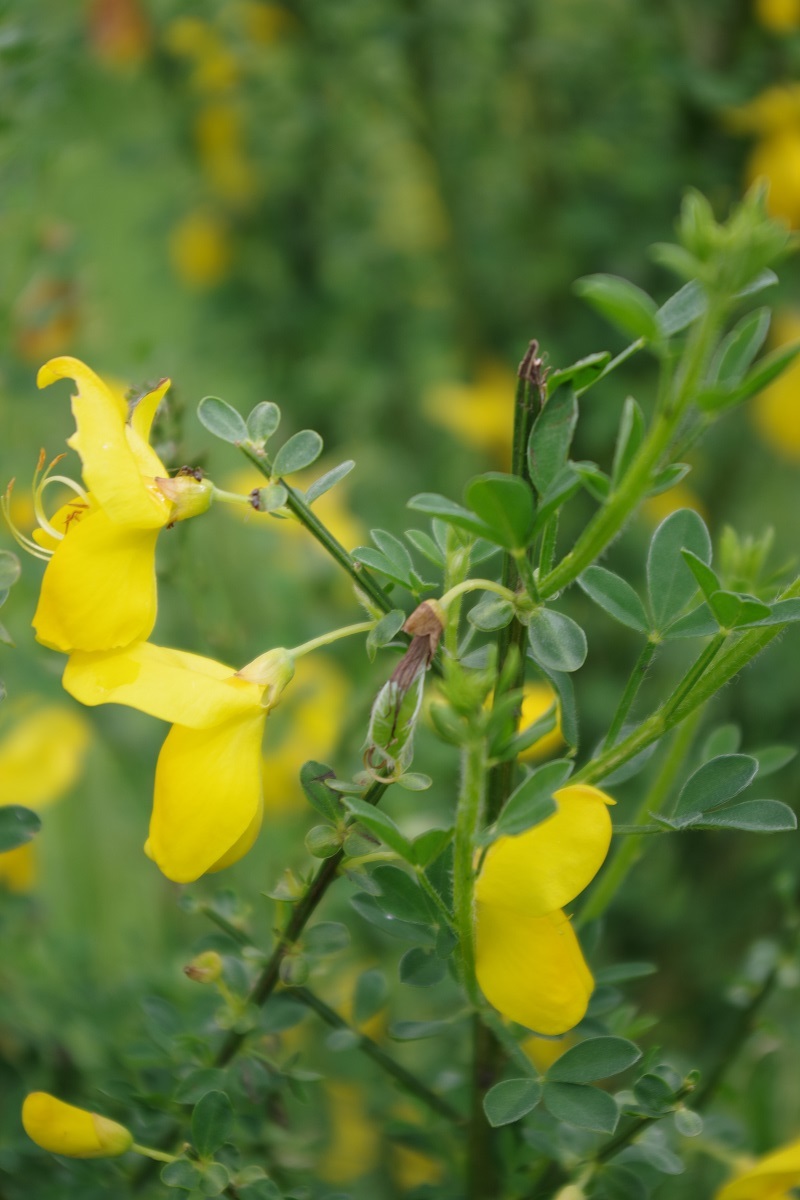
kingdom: Plantae
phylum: Tracheophyta
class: Magnoliopsida
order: Fabales
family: Fabaceae
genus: Cytisus
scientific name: Cytisus scoparius
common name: Scotch broom
